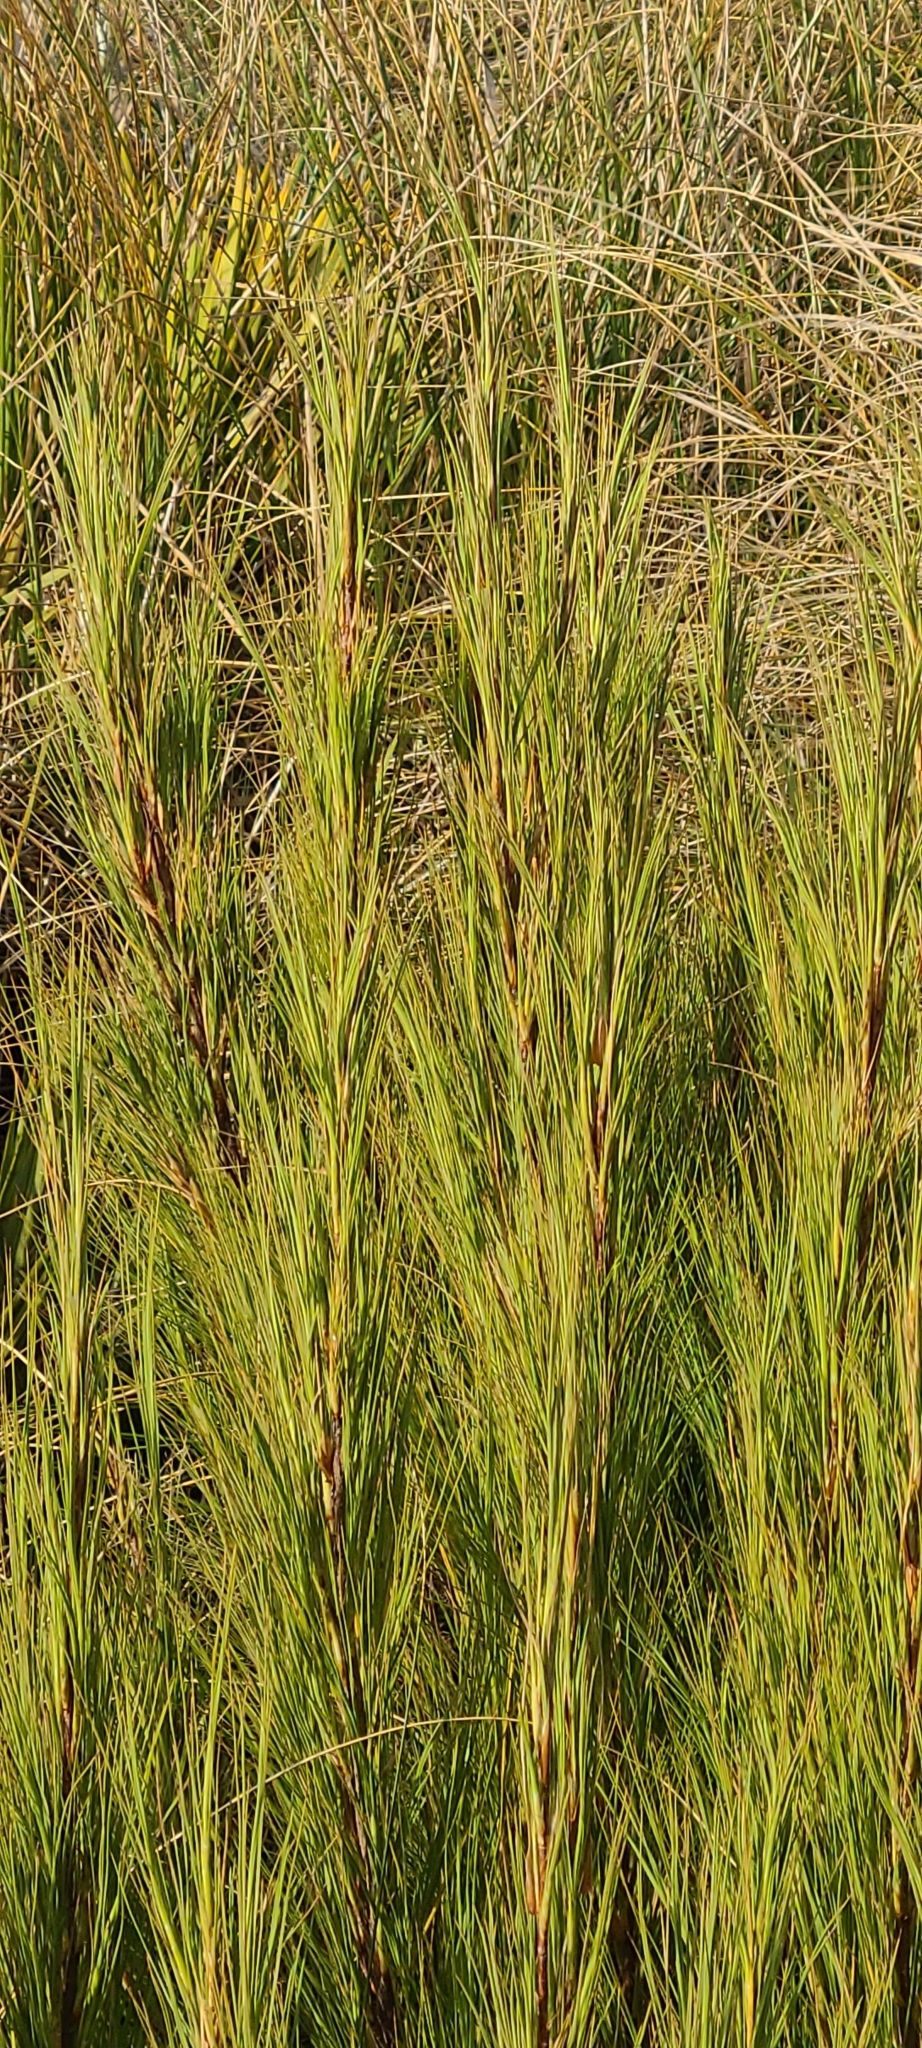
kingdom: Plantae
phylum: Tracheophyta
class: Magnoliopsida
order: Ericales
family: Ericaceae
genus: Dracophyllum
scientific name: Dracophyllum acerosum
